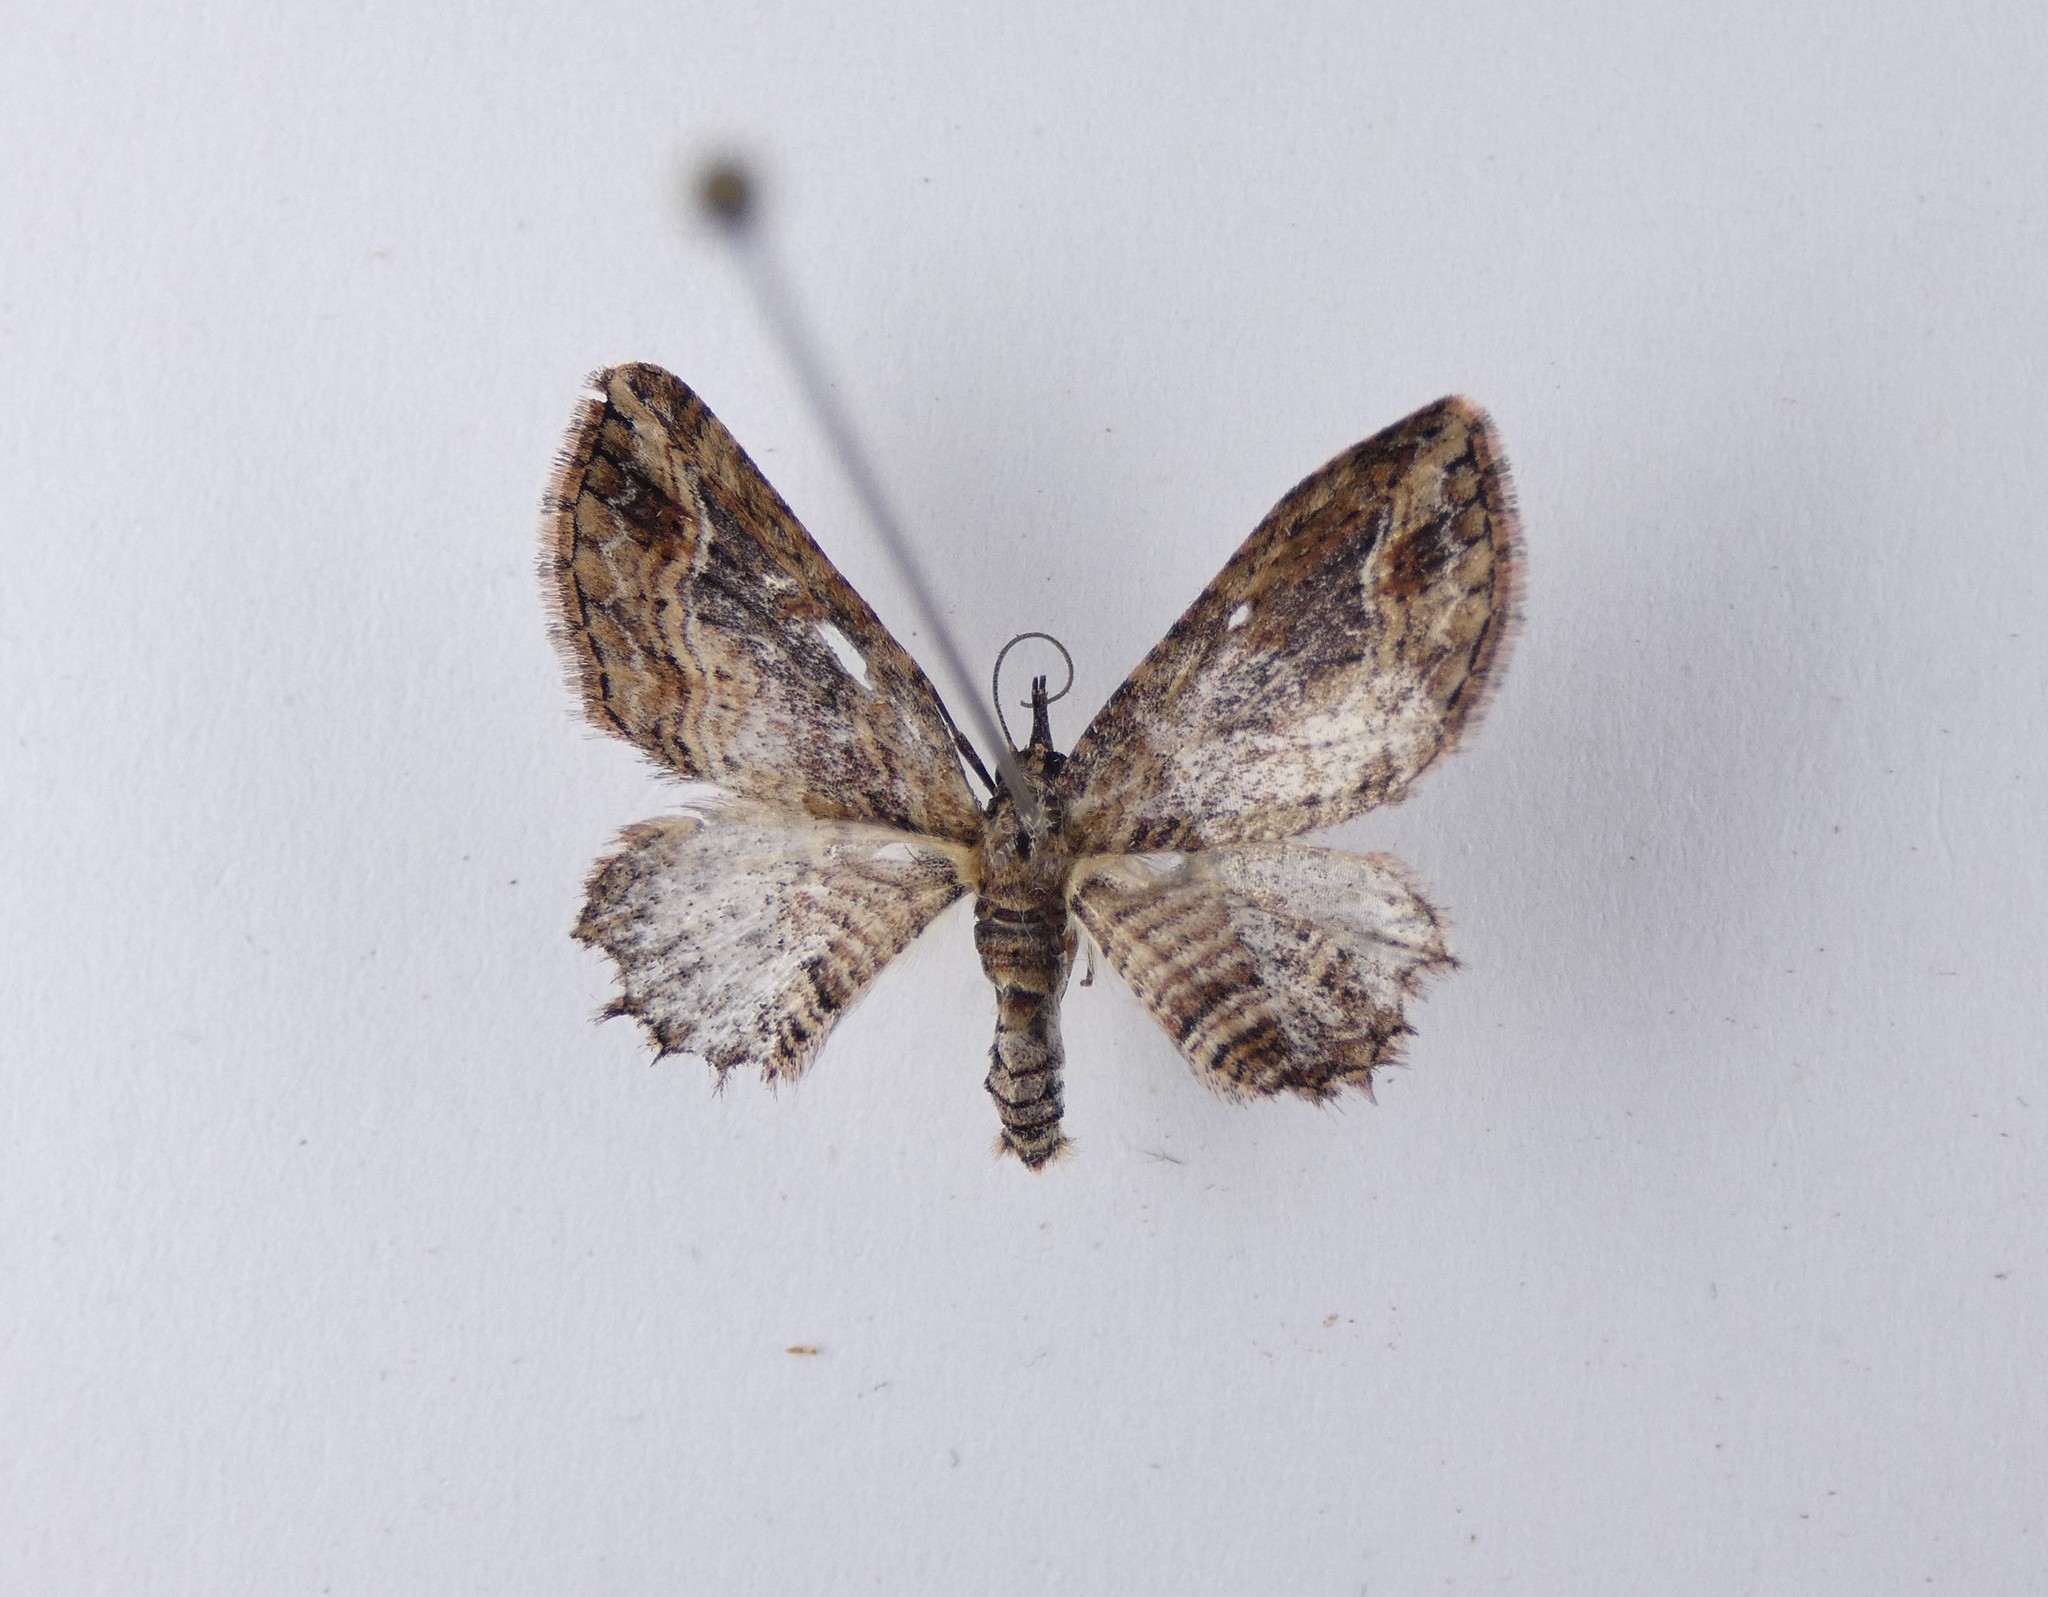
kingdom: Animalia
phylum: Arthropoda
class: Insecta
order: Lepidoptera
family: Geometridae
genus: Chloroclystis
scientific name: Chloroclystis filata
